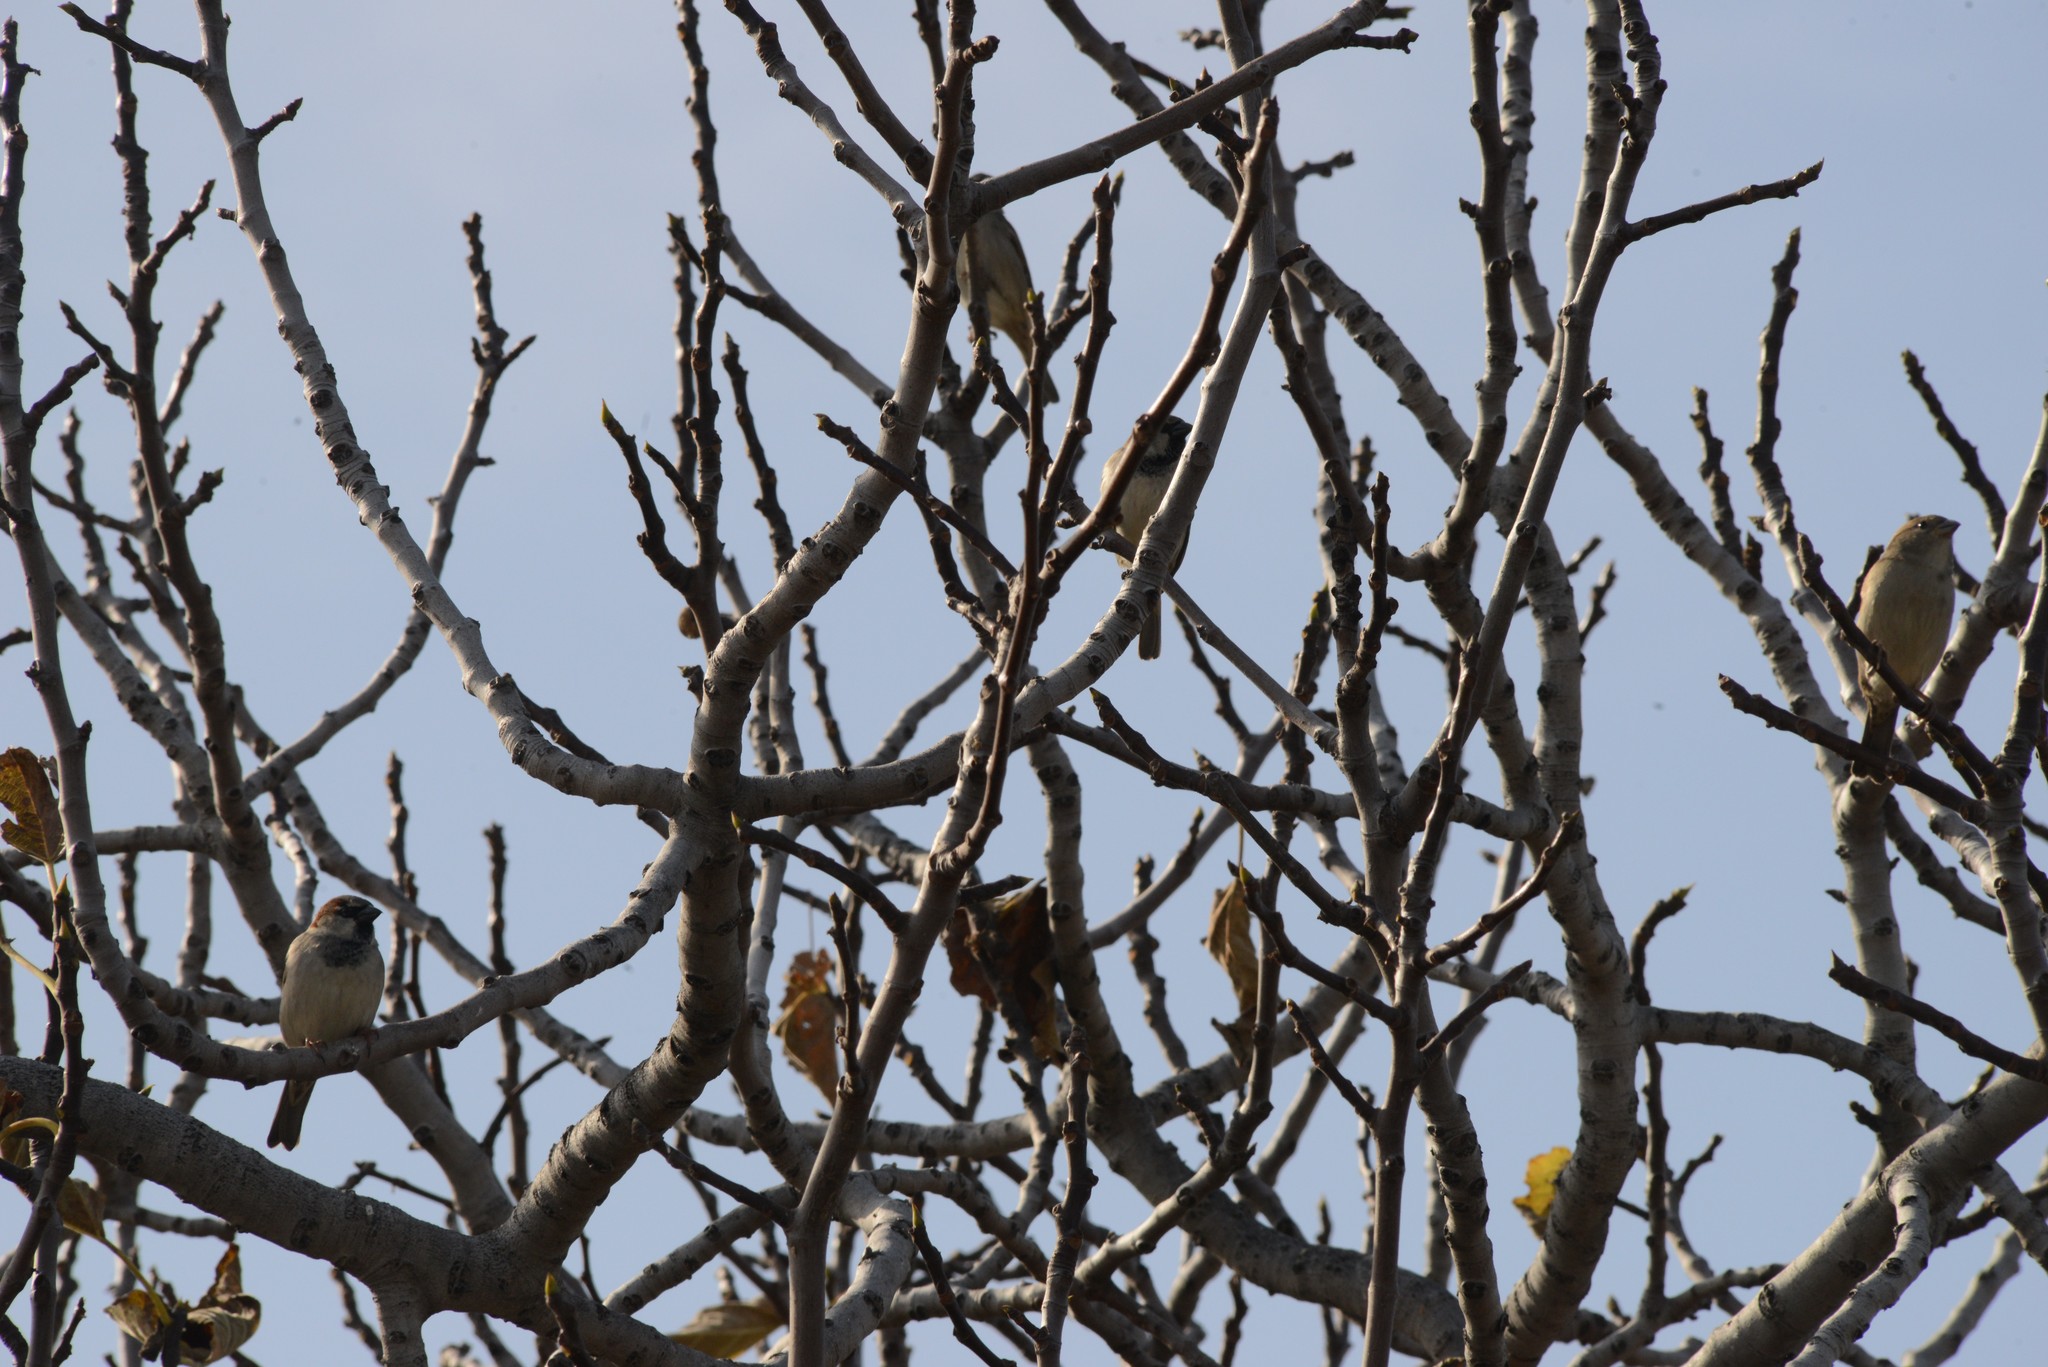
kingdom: Animalia
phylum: Chordata
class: Aves
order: Passeriformes
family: Passeridae
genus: Passer
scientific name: Passer domesticus
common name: House sparrow
